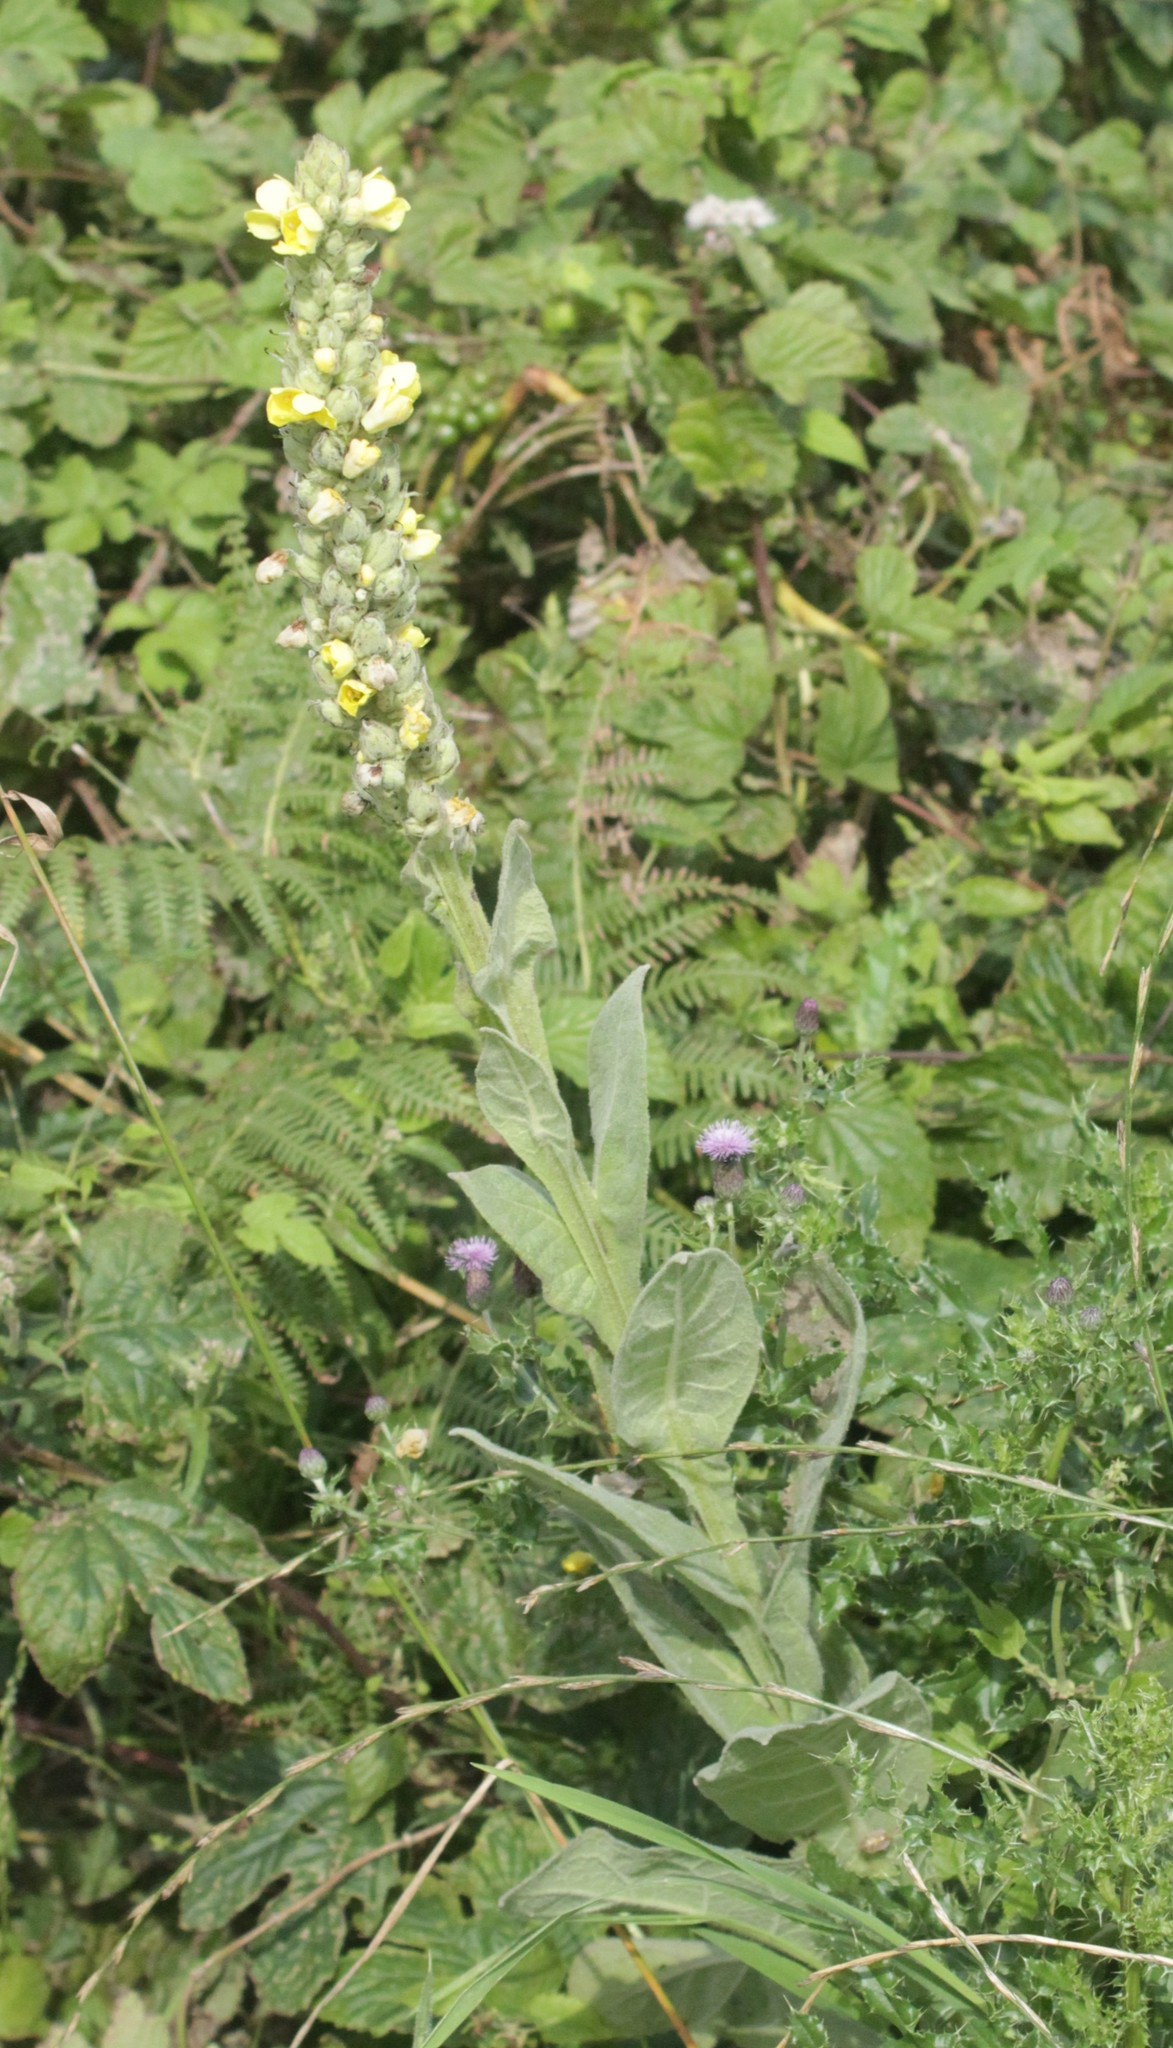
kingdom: Plantae
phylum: Tracheophyta
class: Magnoliopsida
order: Lamiales
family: Scrophulariaceae
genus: Verbascum
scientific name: Verbascum thapsus
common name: Common mullein
